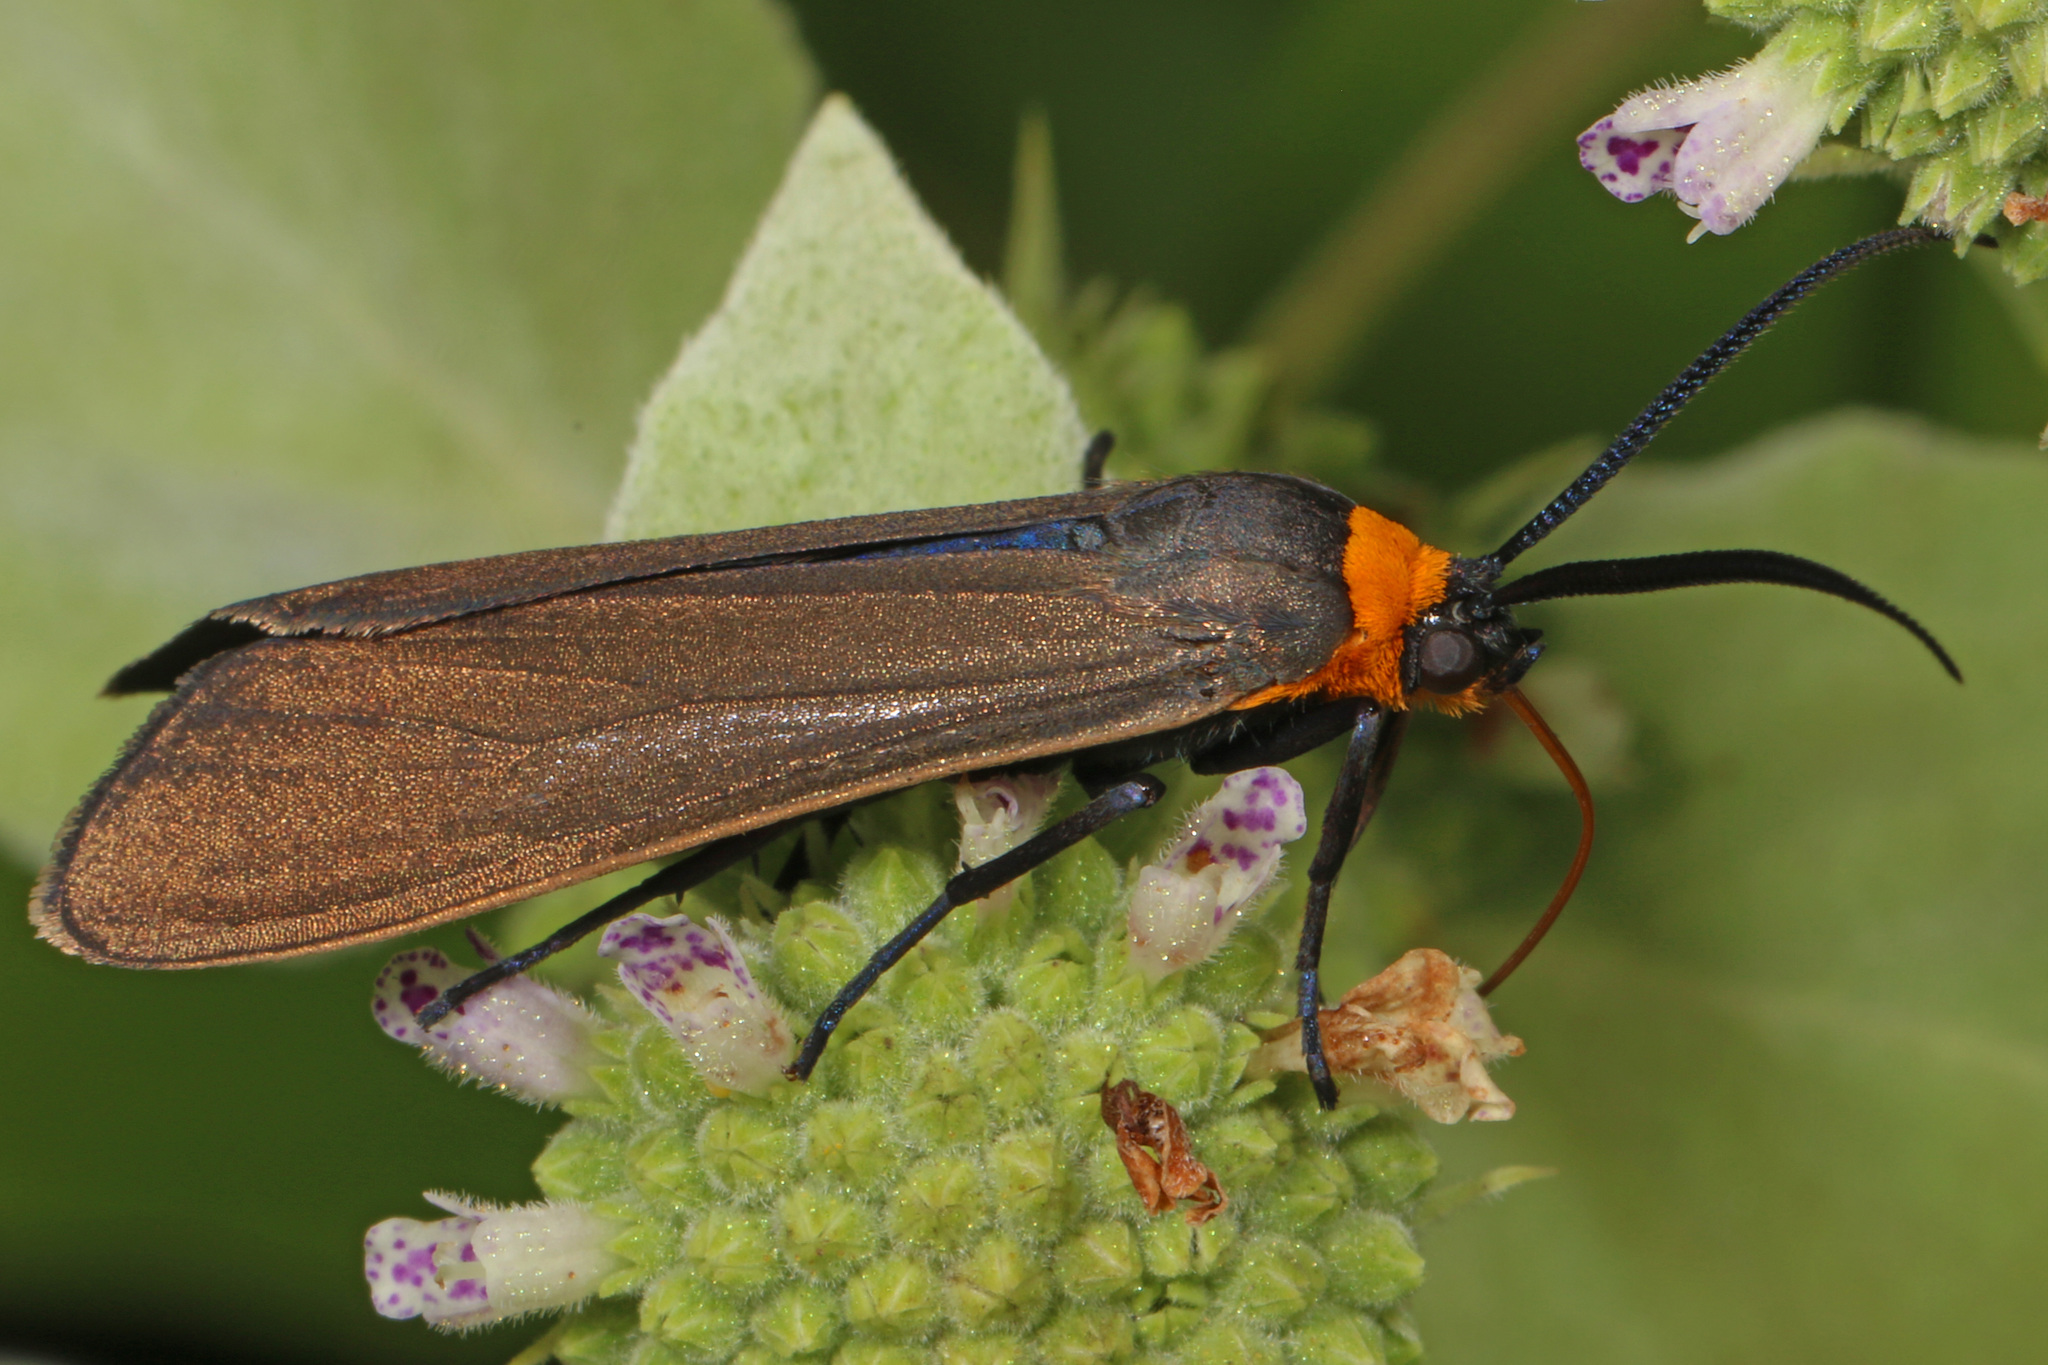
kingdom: Animalia
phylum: Arthropoda
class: Insecta
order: Lepidoptera
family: Erebidae
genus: Cisseps
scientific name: Cisseps fulvicollis
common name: Yellow-collared scape moth
